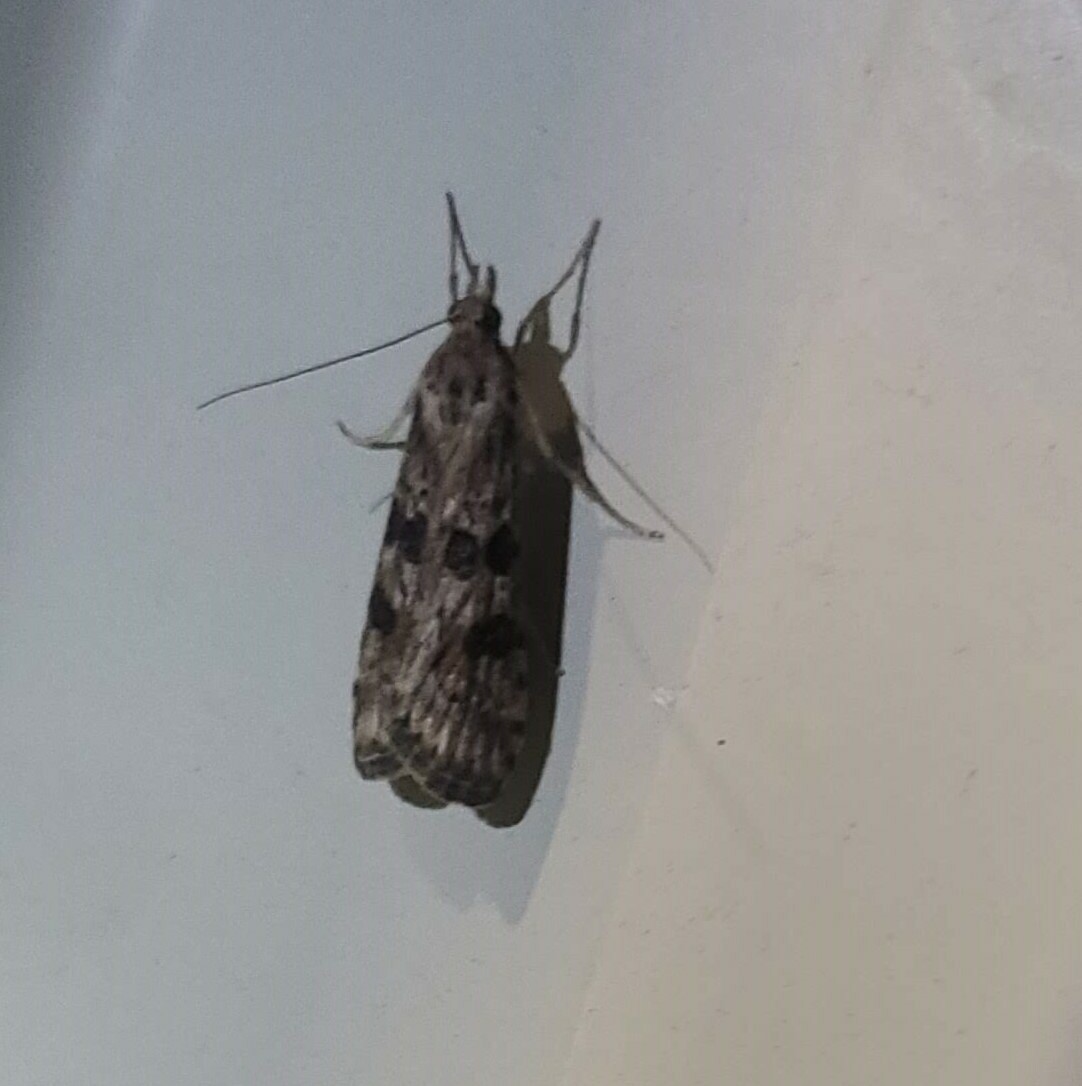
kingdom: Animalia
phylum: Arthropoda
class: Insecta
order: Lepidoptera
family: Crambidae
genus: Nomophila
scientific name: Nomophila nearctica
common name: American rush veneer
